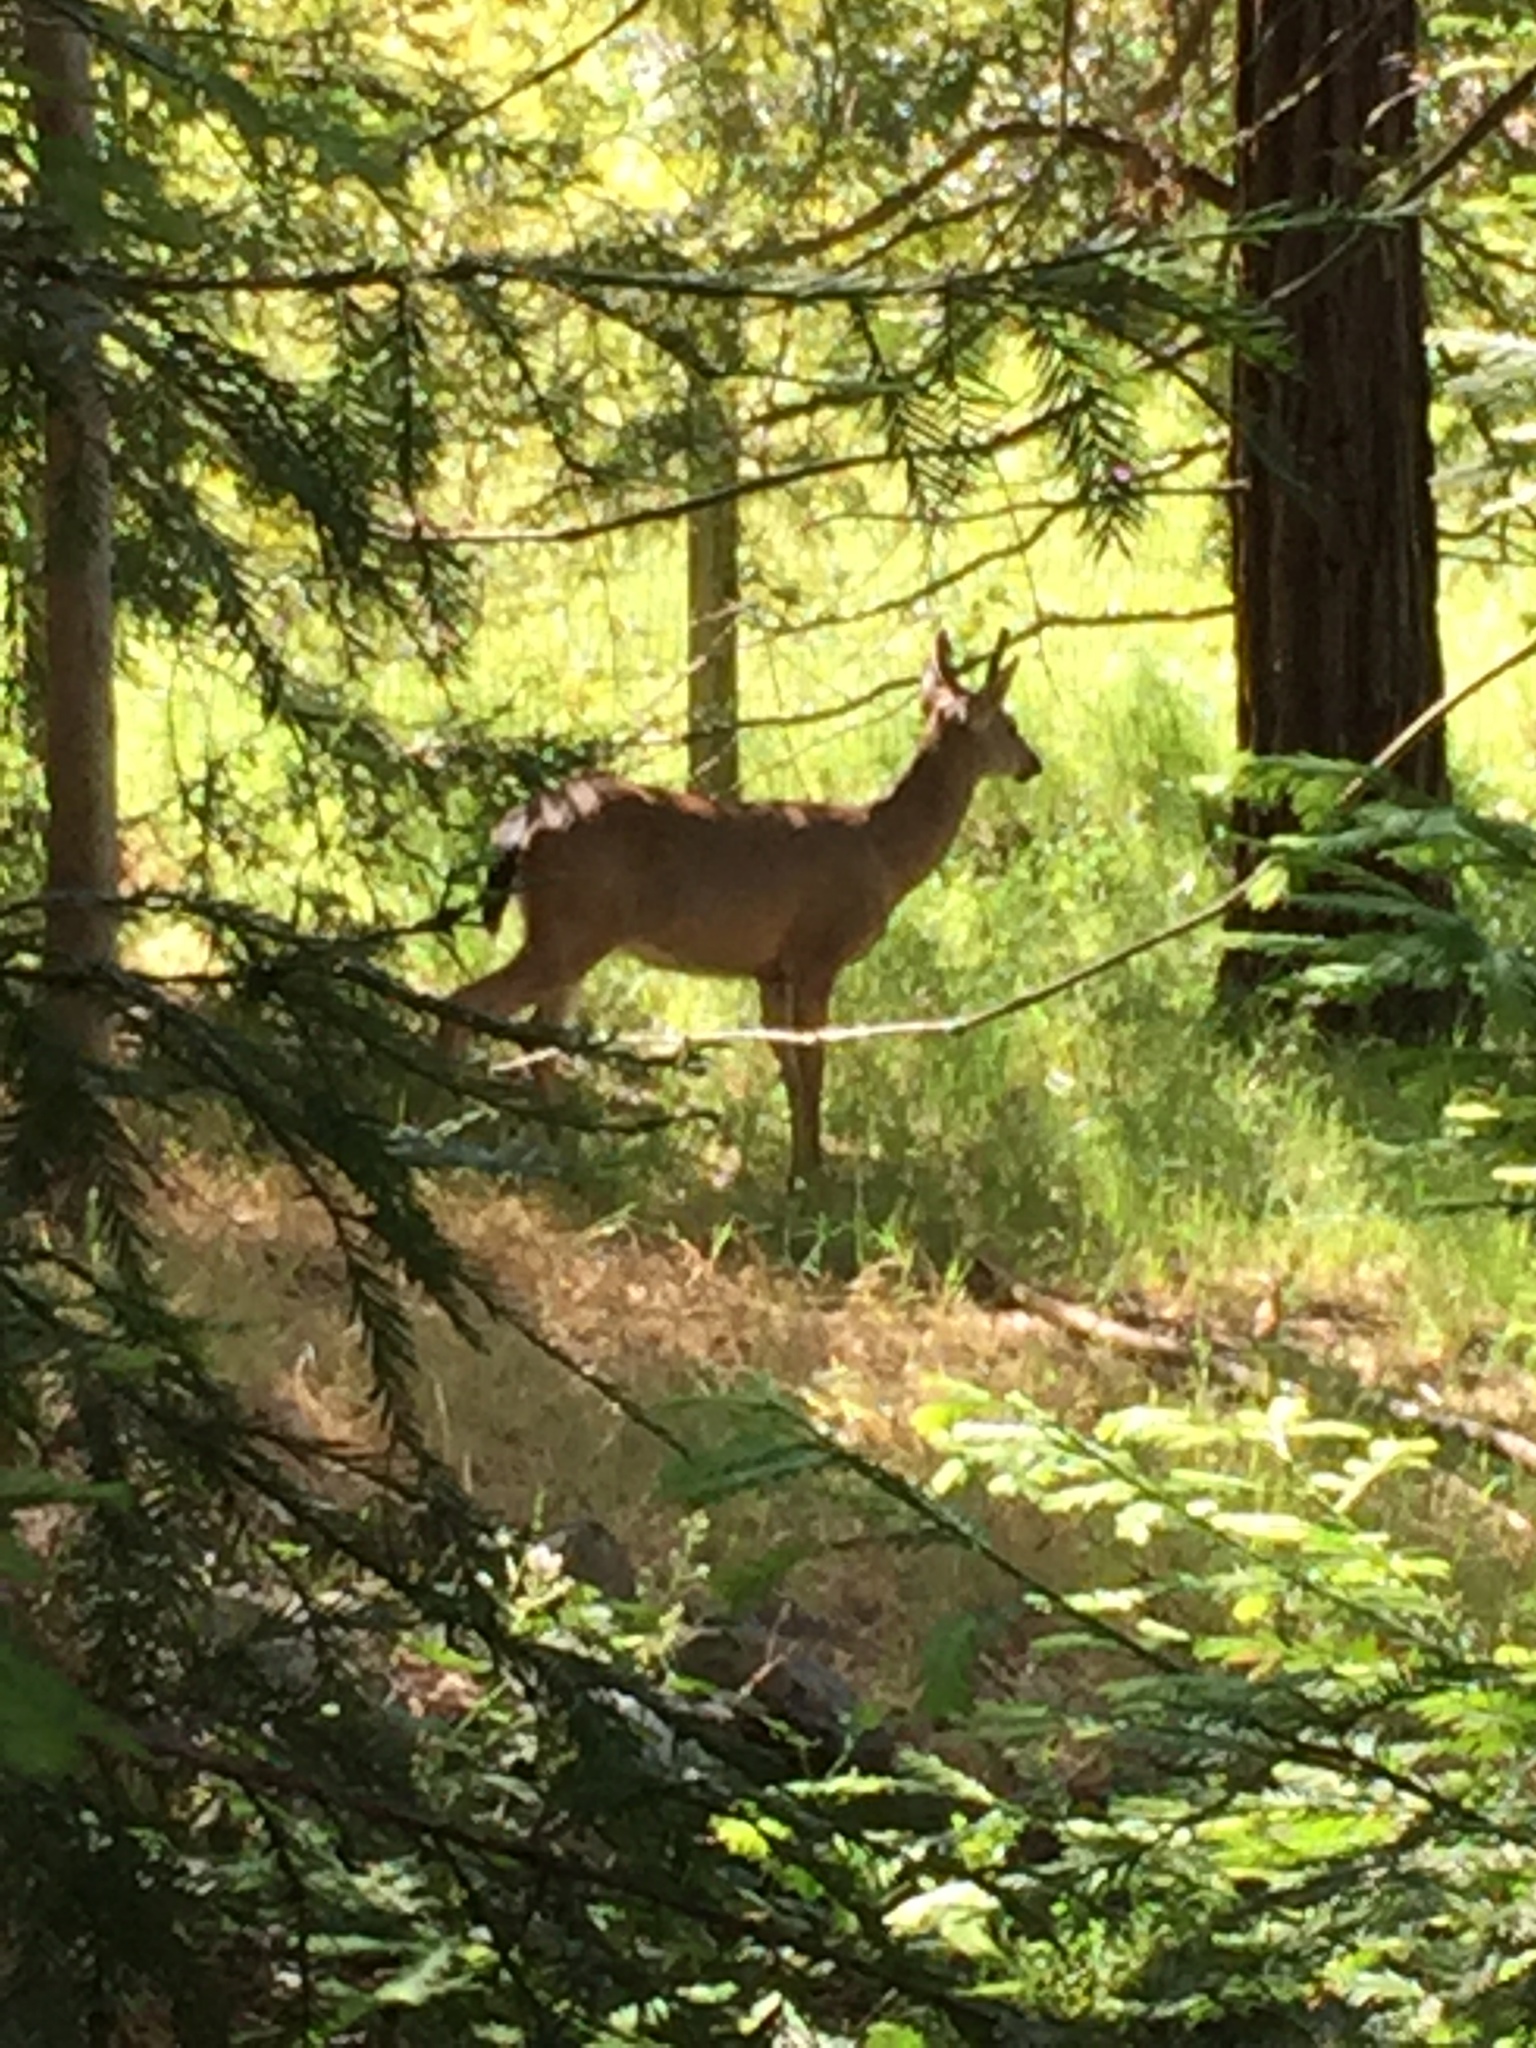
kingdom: Animalia
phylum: Chordata
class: Mammalia
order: Artiodactyla
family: Cervidae
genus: Odocoileus
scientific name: Odocoileus hemionus
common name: Mule deer
